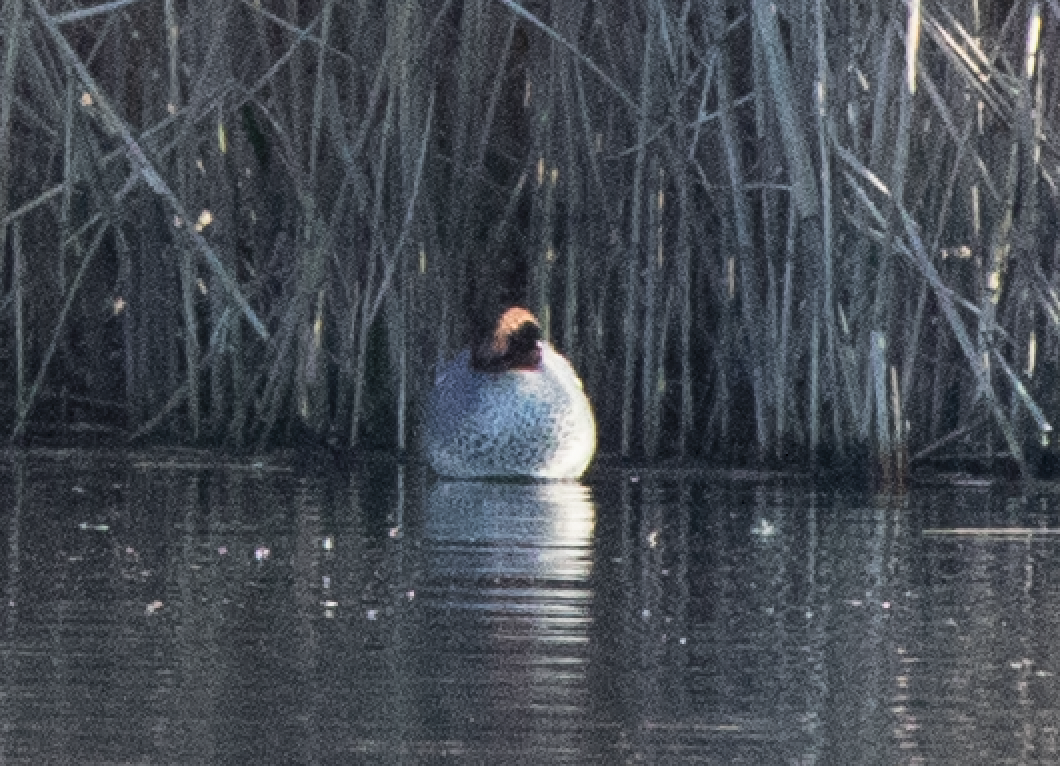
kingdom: Animalia
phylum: Chordata
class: Aves
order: Anseriformes
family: Anatidae
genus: Anas
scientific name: Anas crecca
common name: Eurasian teal
